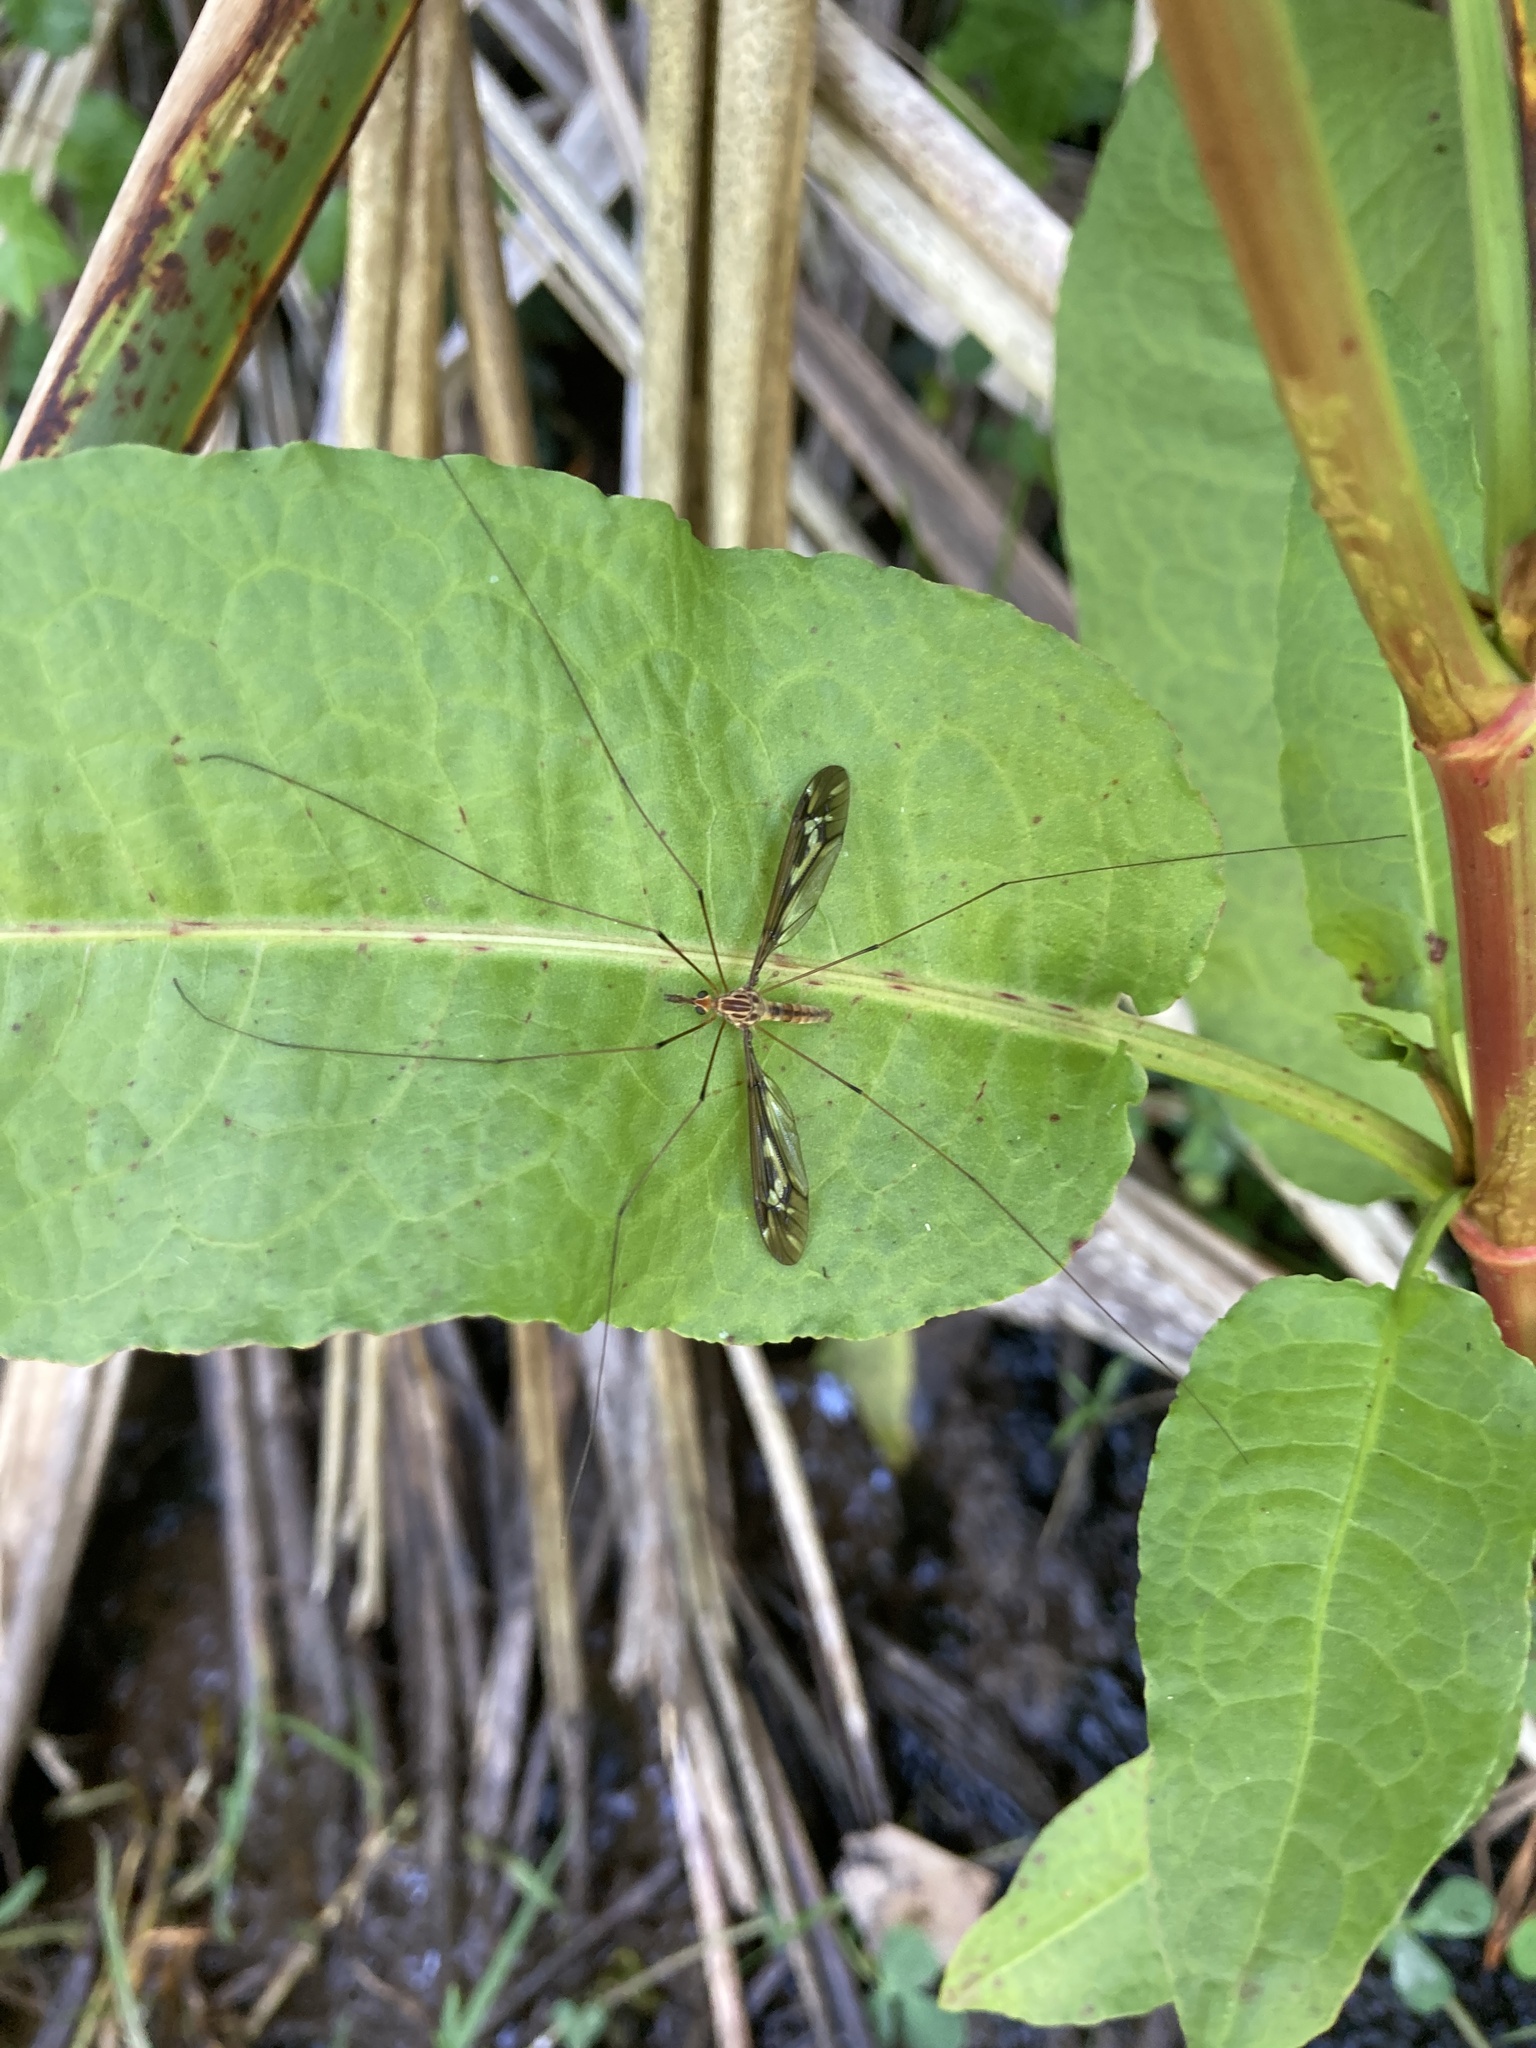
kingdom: Animalia
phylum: Arthropoda
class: Insecta
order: Diptera
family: Tipulidae
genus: Leptotarsus
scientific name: Leptotarsus huttoni
